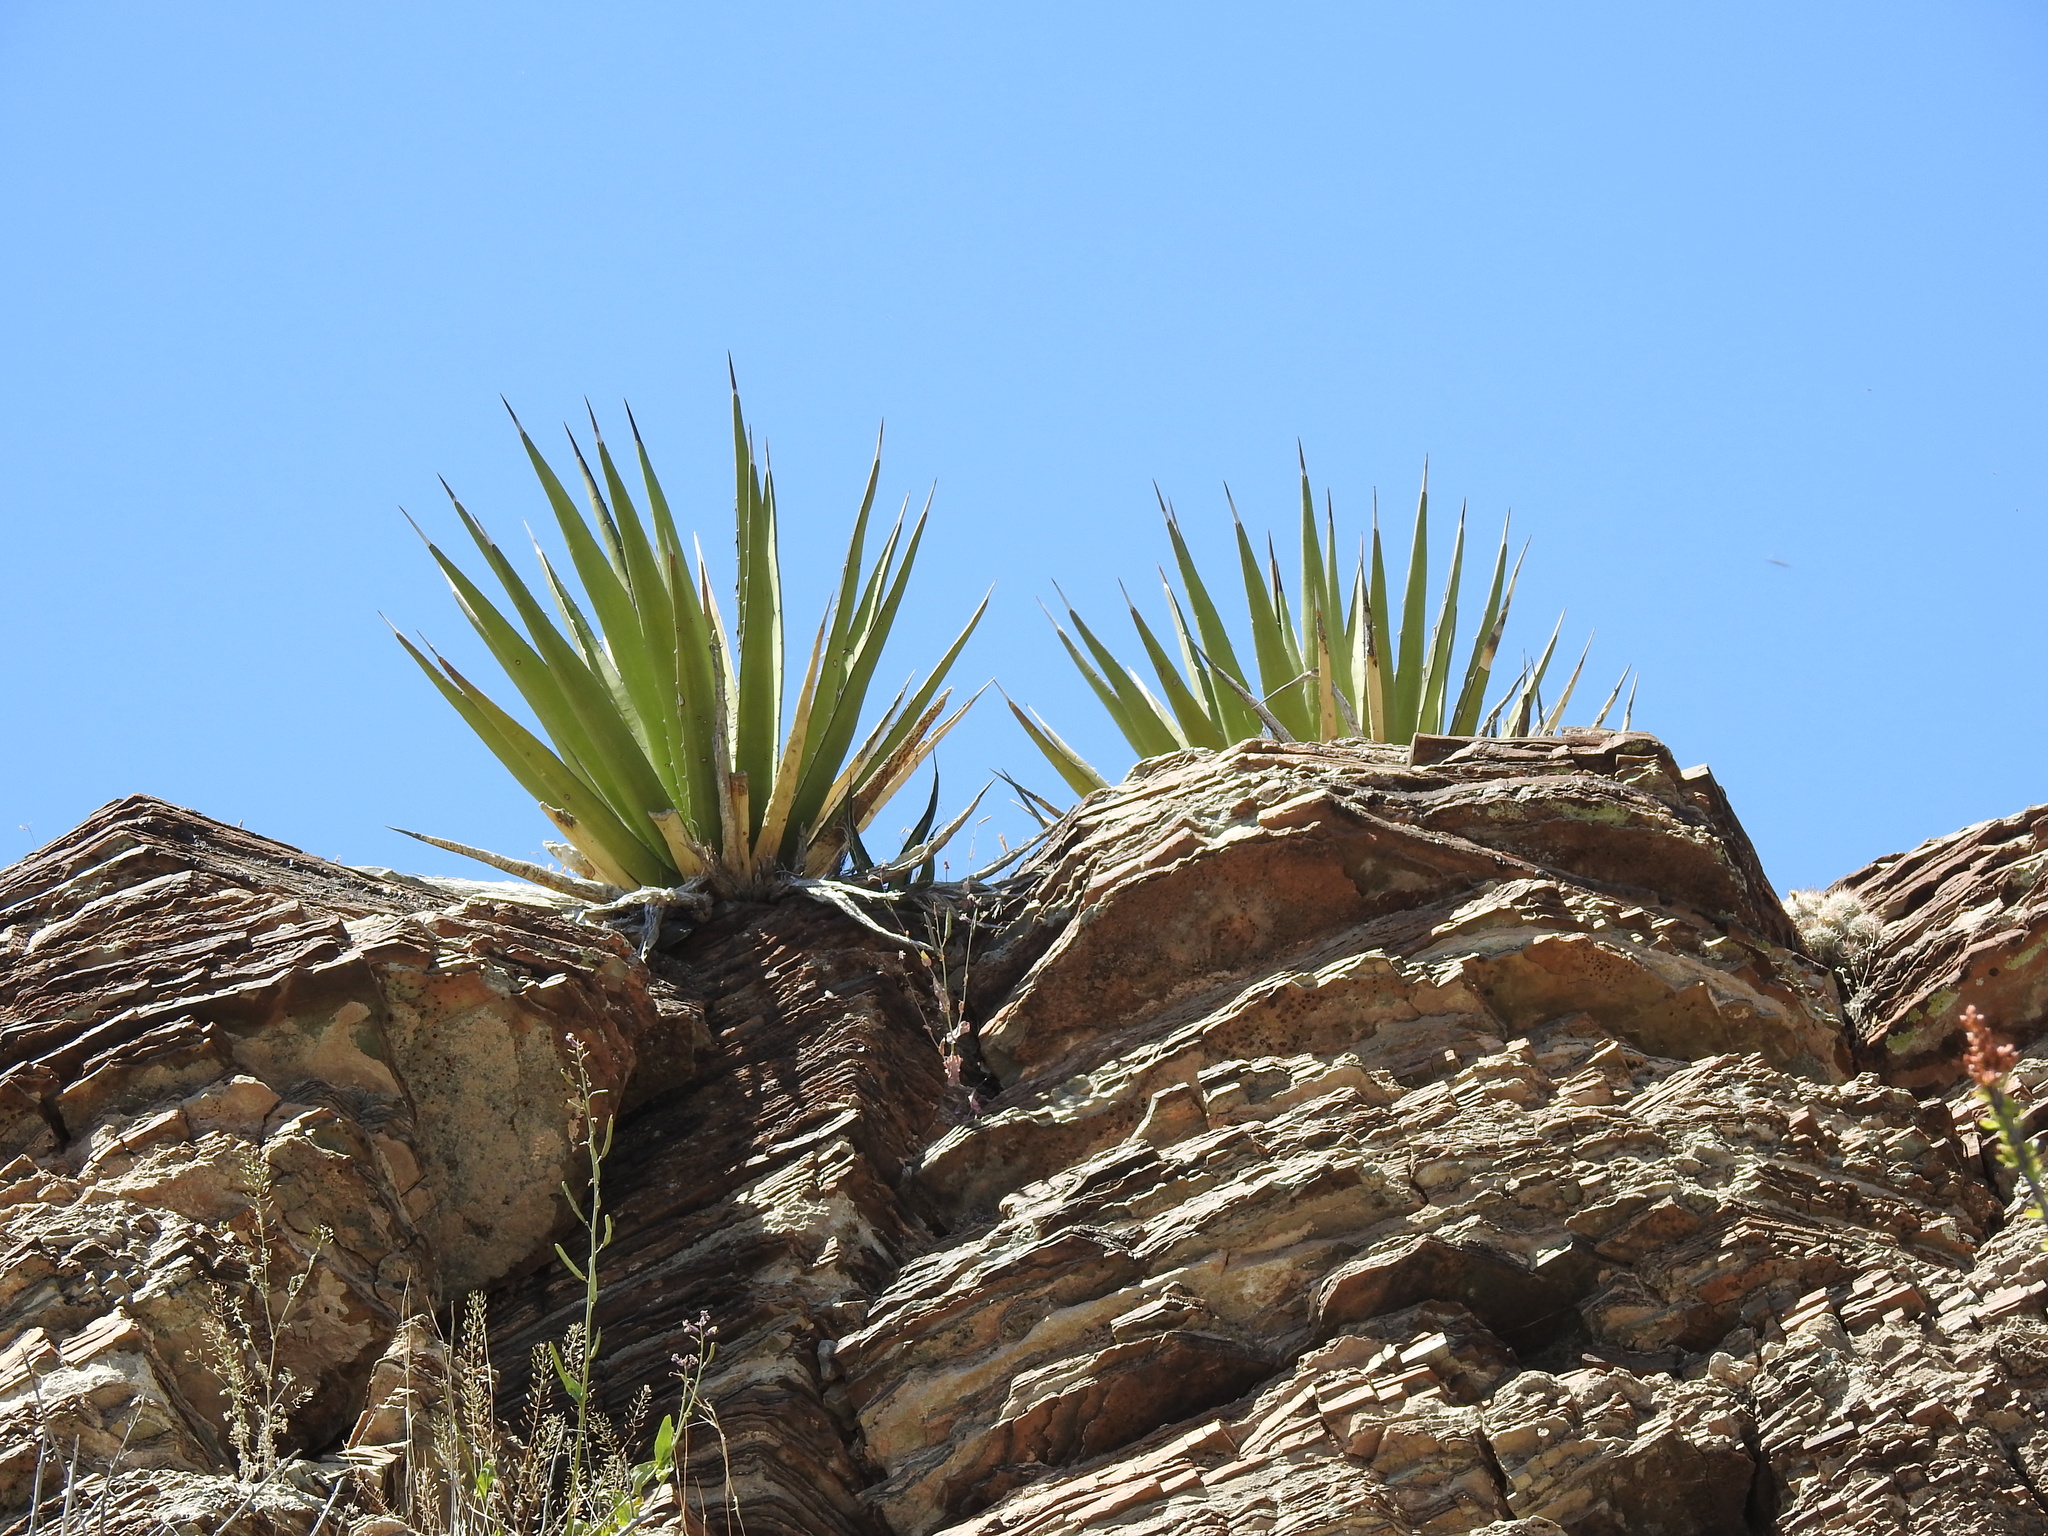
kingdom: Plantae
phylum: Tracheophyta
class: Liliopsida
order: Asparagales
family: Asparagaceae
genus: Agave
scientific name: Agave lechuguilla
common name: Lecheguilla agave
